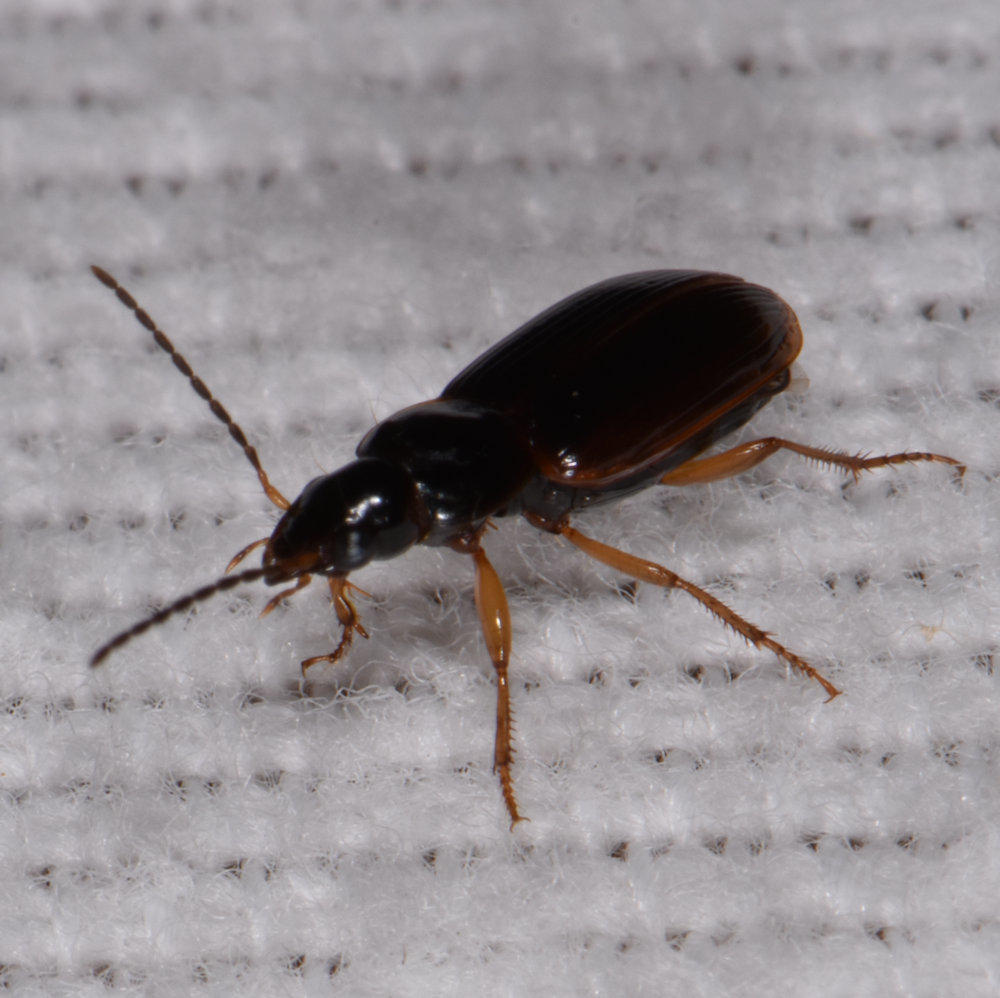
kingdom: Animalia
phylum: Arthropoda
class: Insecta
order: Coleoptera
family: Carabidae
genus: Stenolophus
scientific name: Stenolophus ochropezus
